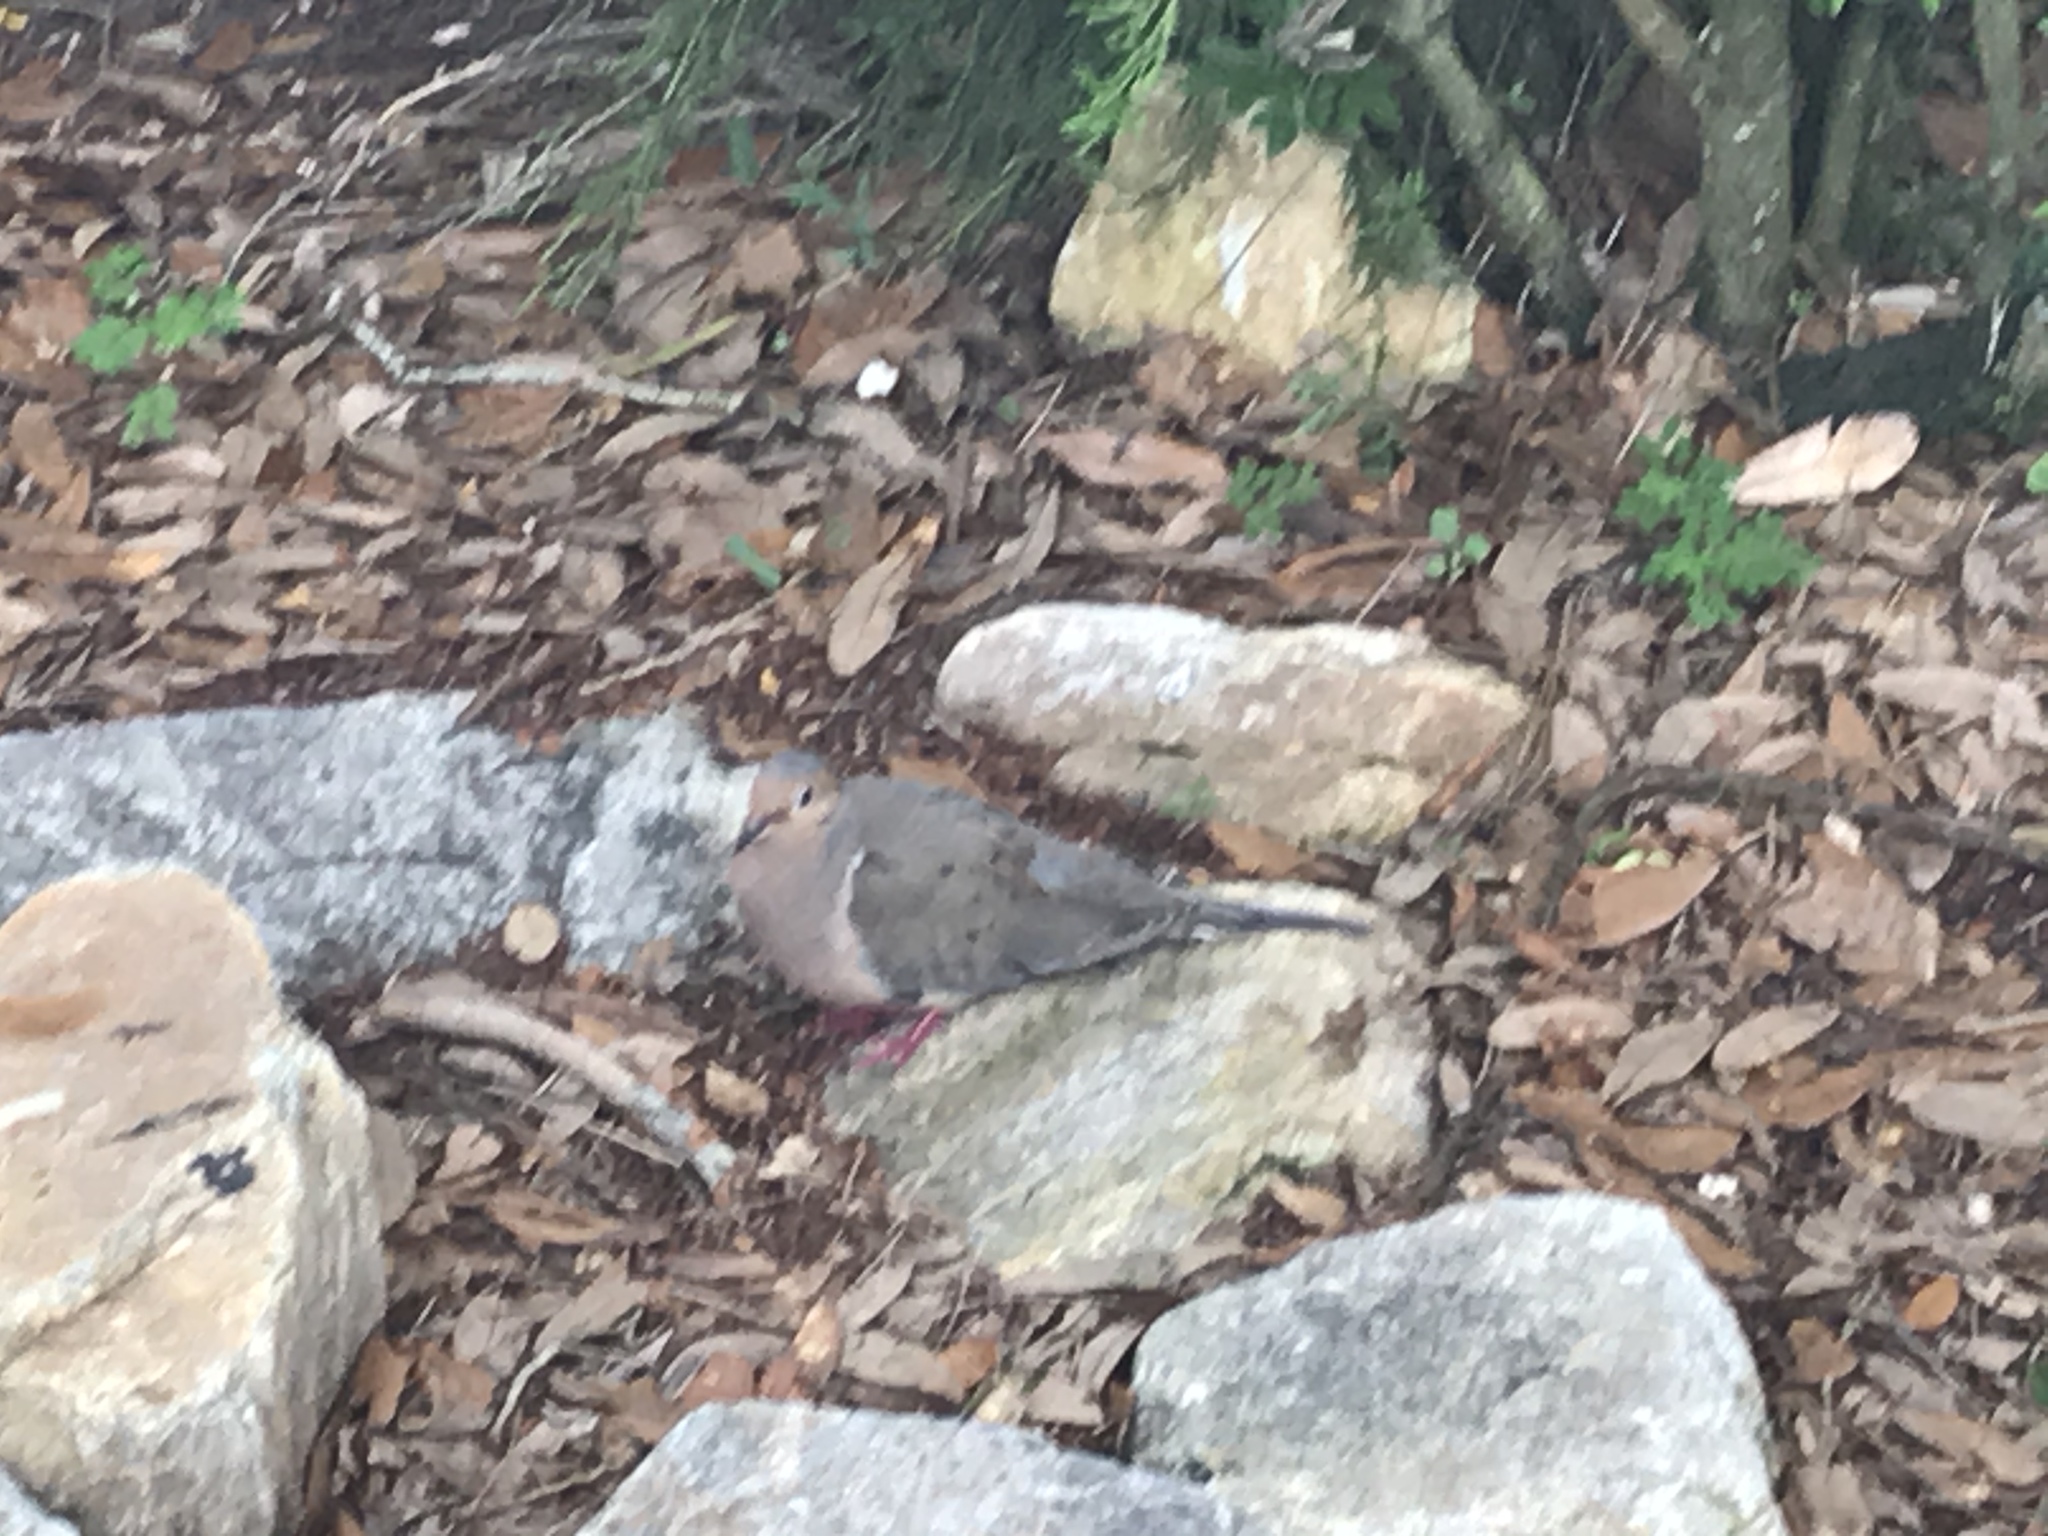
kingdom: Animalia
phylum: Chordata
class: Aves
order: Columbiformes
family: Columbidae
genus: Zenaida
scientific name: Zenaida macroura
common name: Mourning dove
